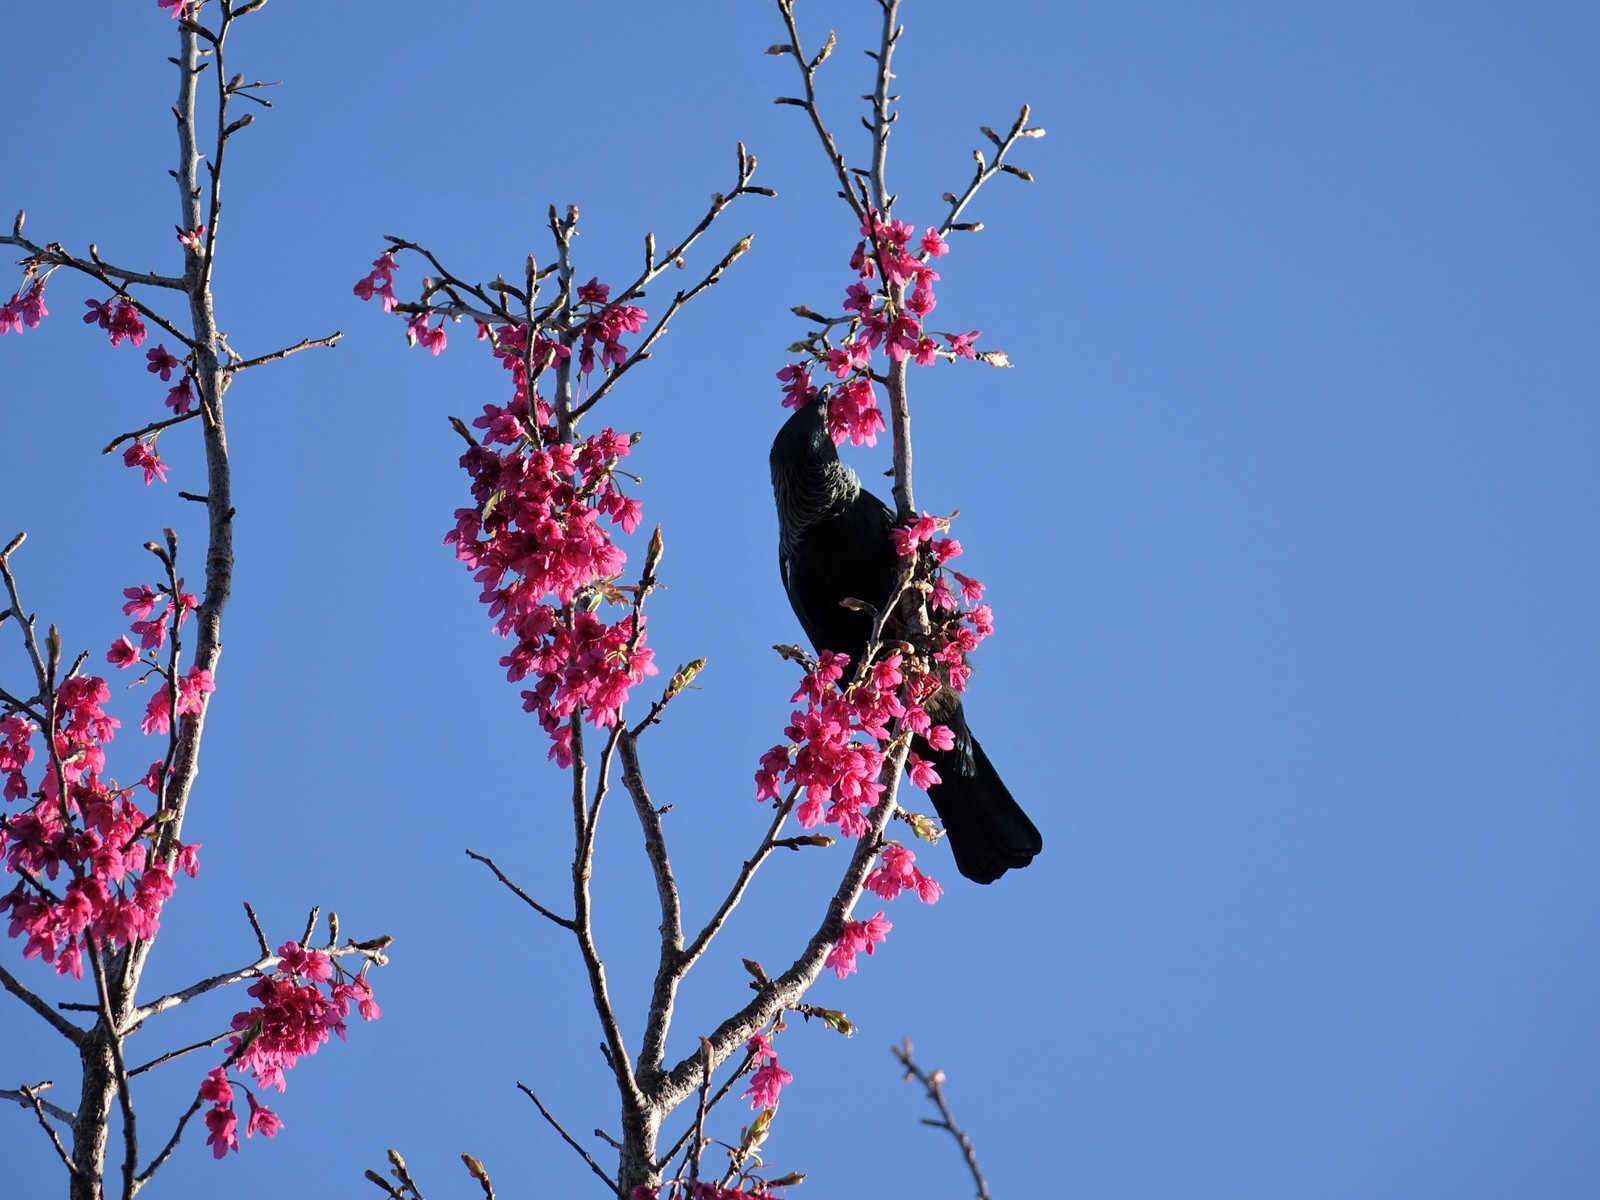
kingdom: Animalia
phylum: Chordata
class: Aves
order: Passeriformes
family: Meliphagidae
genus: Prosthemadera
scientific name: Prosthemadera novaeseelandiae
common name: Tui
